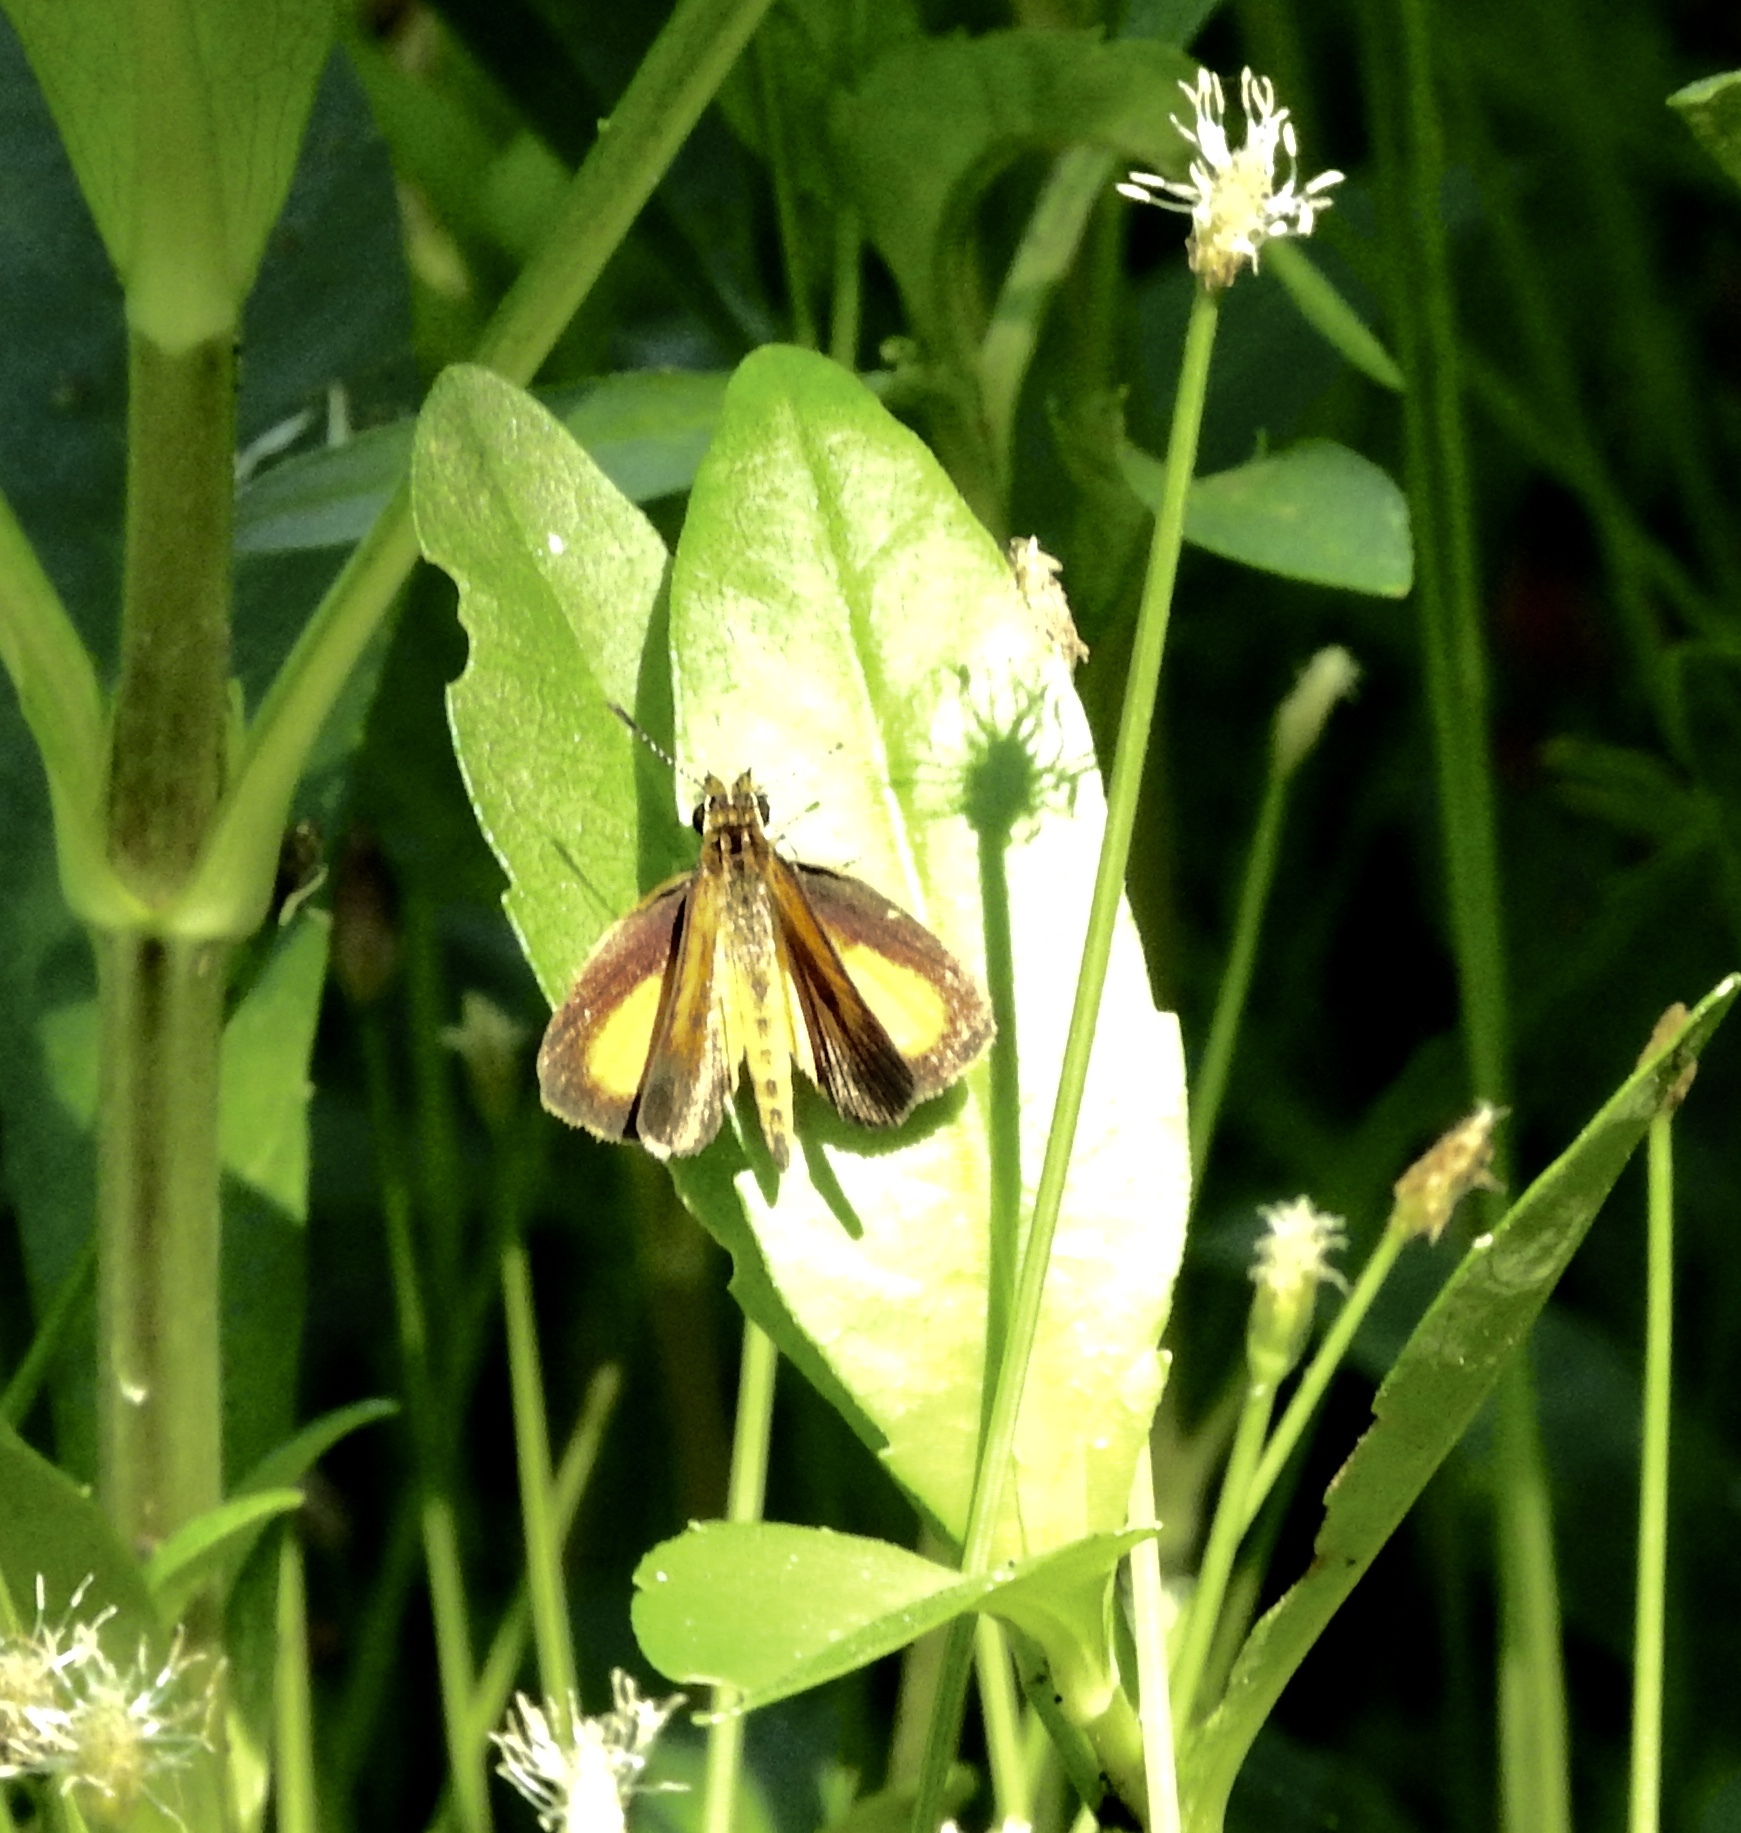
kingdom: Animalia
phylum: Arthropoda
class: Insecta
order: Lepidoptera
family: Hesperiidae
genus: Ancyloxypha
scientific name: Ancyloxypha numitor
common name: Least skipper
